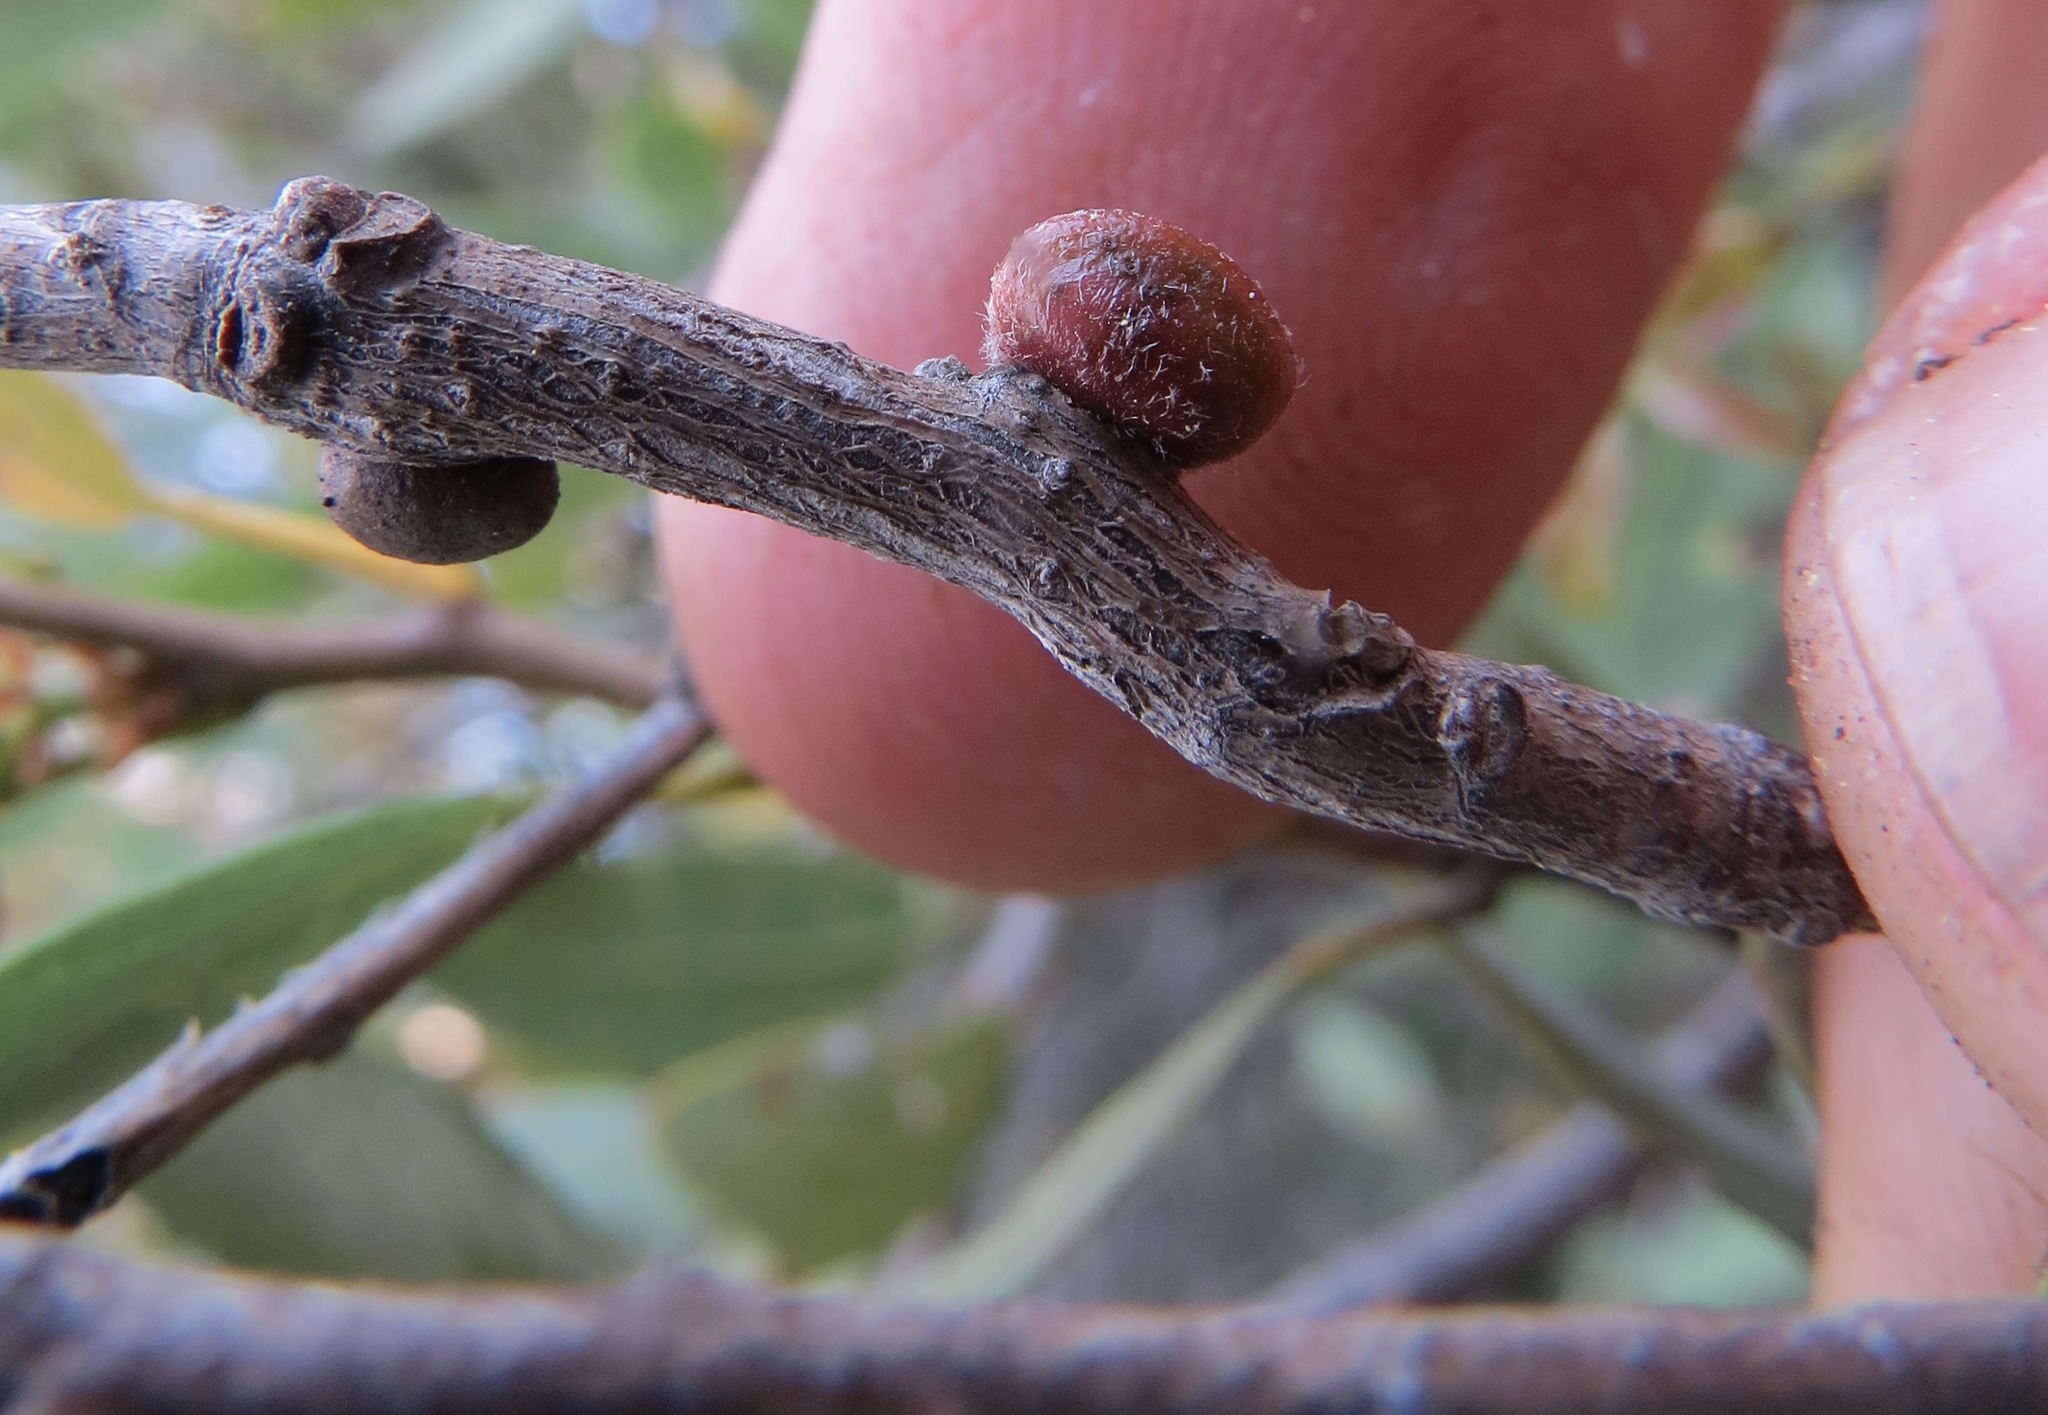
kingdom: Animalia
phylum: Arthropoda
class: Insecta
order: Hymenoptera
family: Cynipidae
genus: Disholcaspis
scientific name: Disholcaspis
